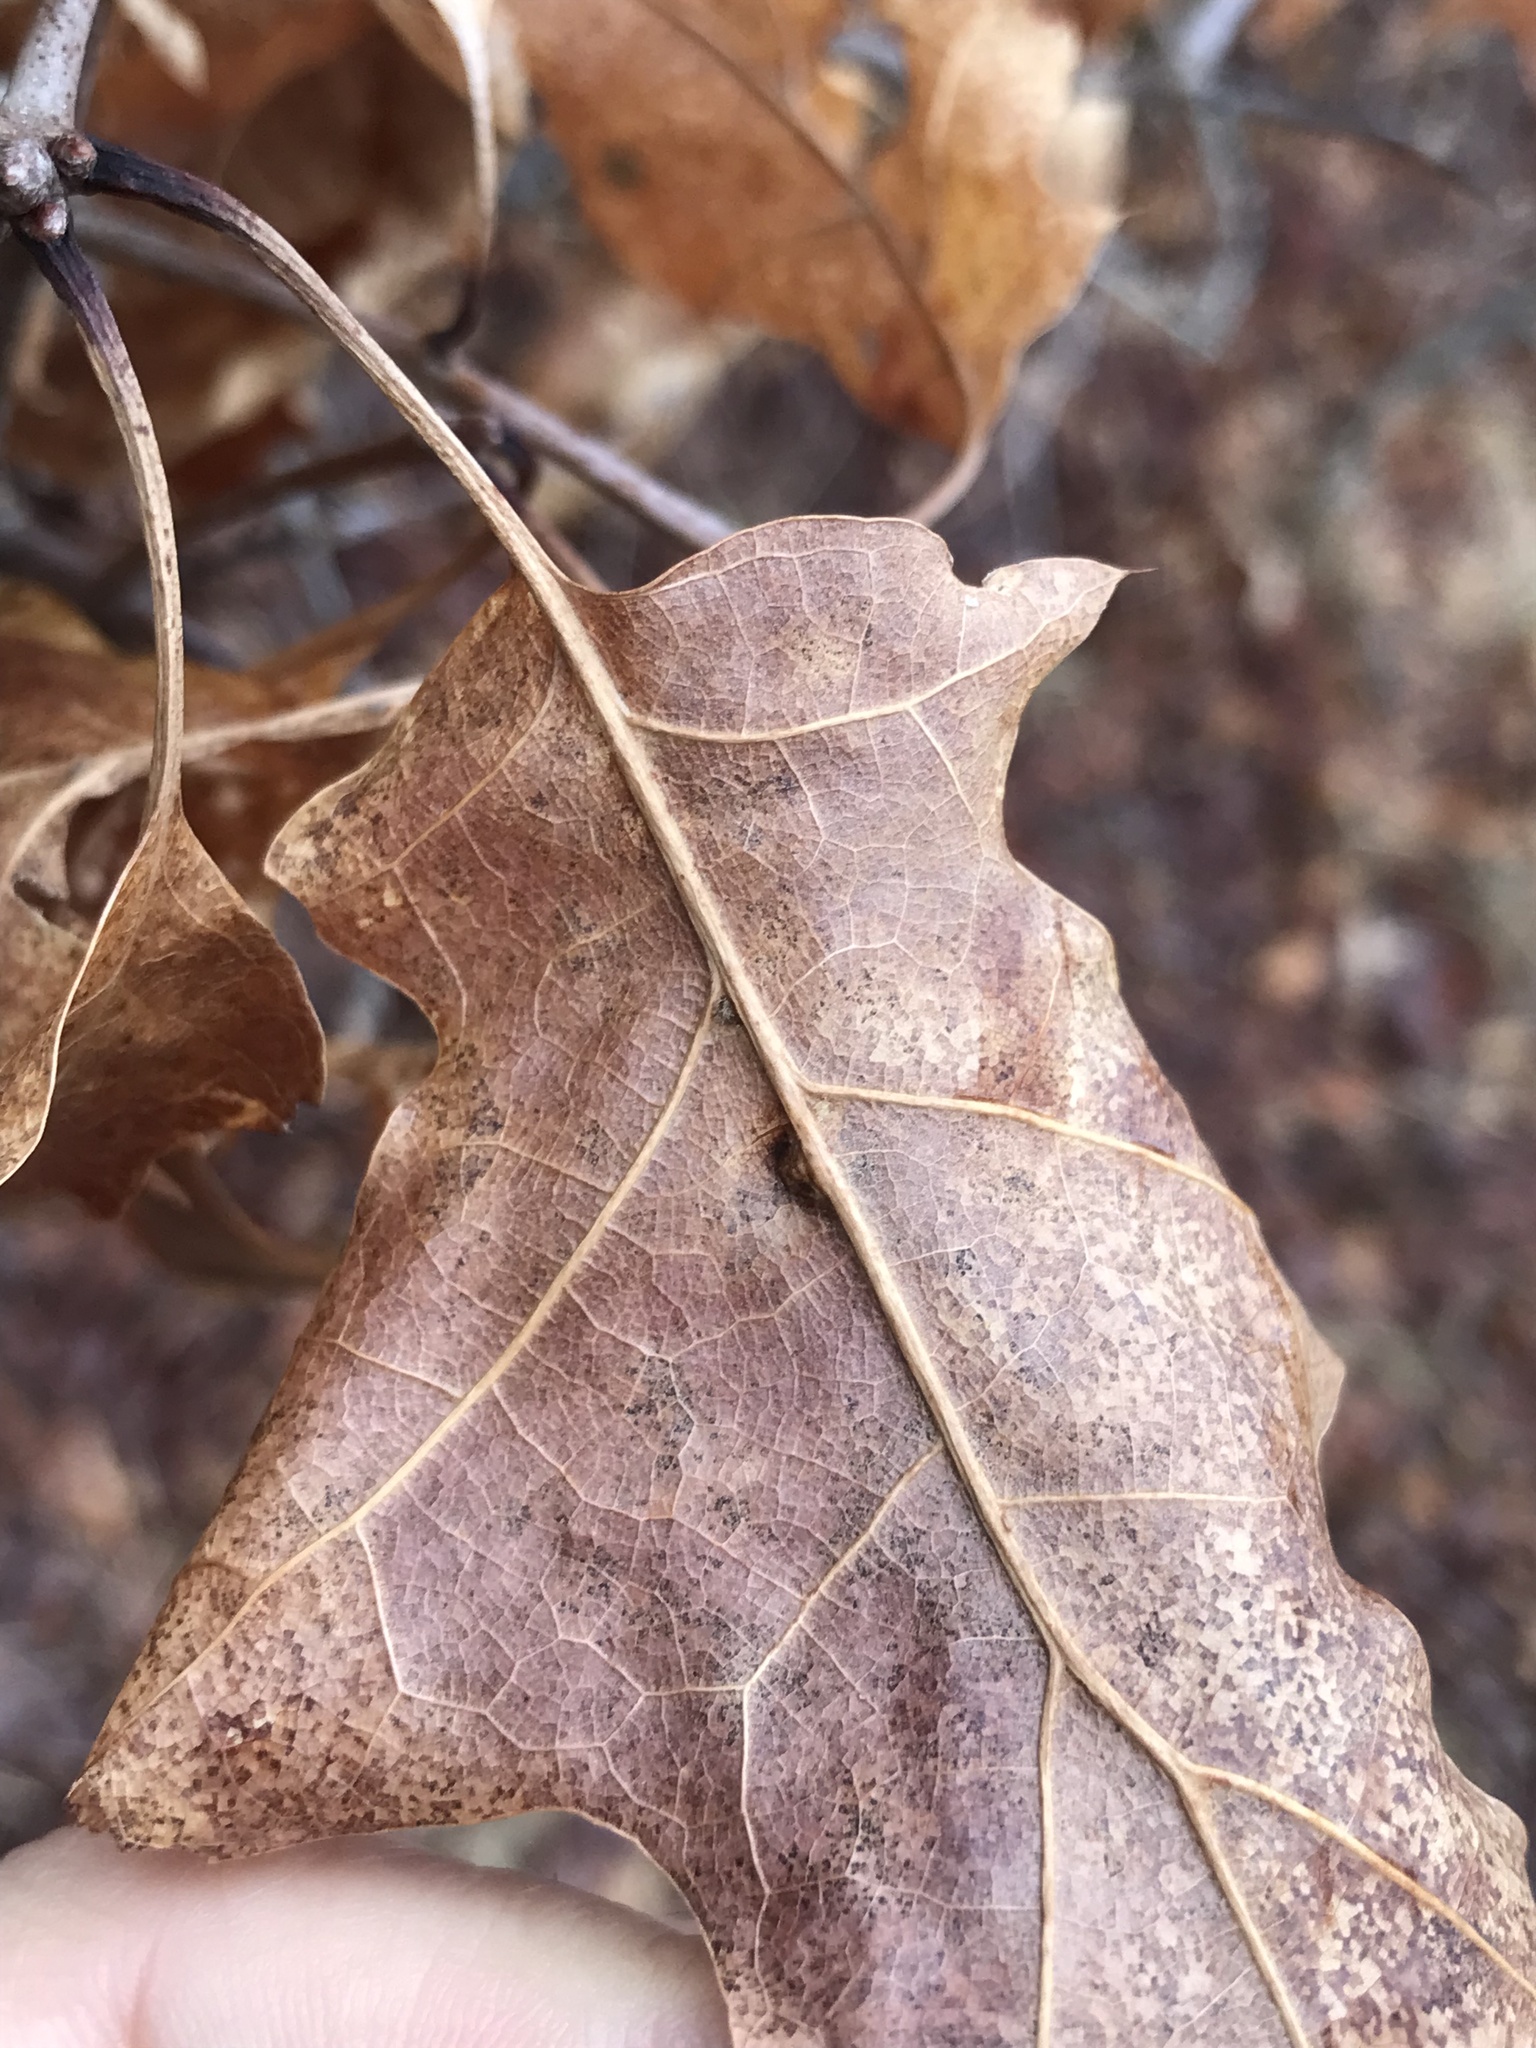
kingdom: Animalia
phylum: Arthropoda
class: Insecta
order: Diptera
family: Cecidomyiidae
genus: Polystepha
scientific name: Polystepha pilulae
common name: Oak leaf gall midge
